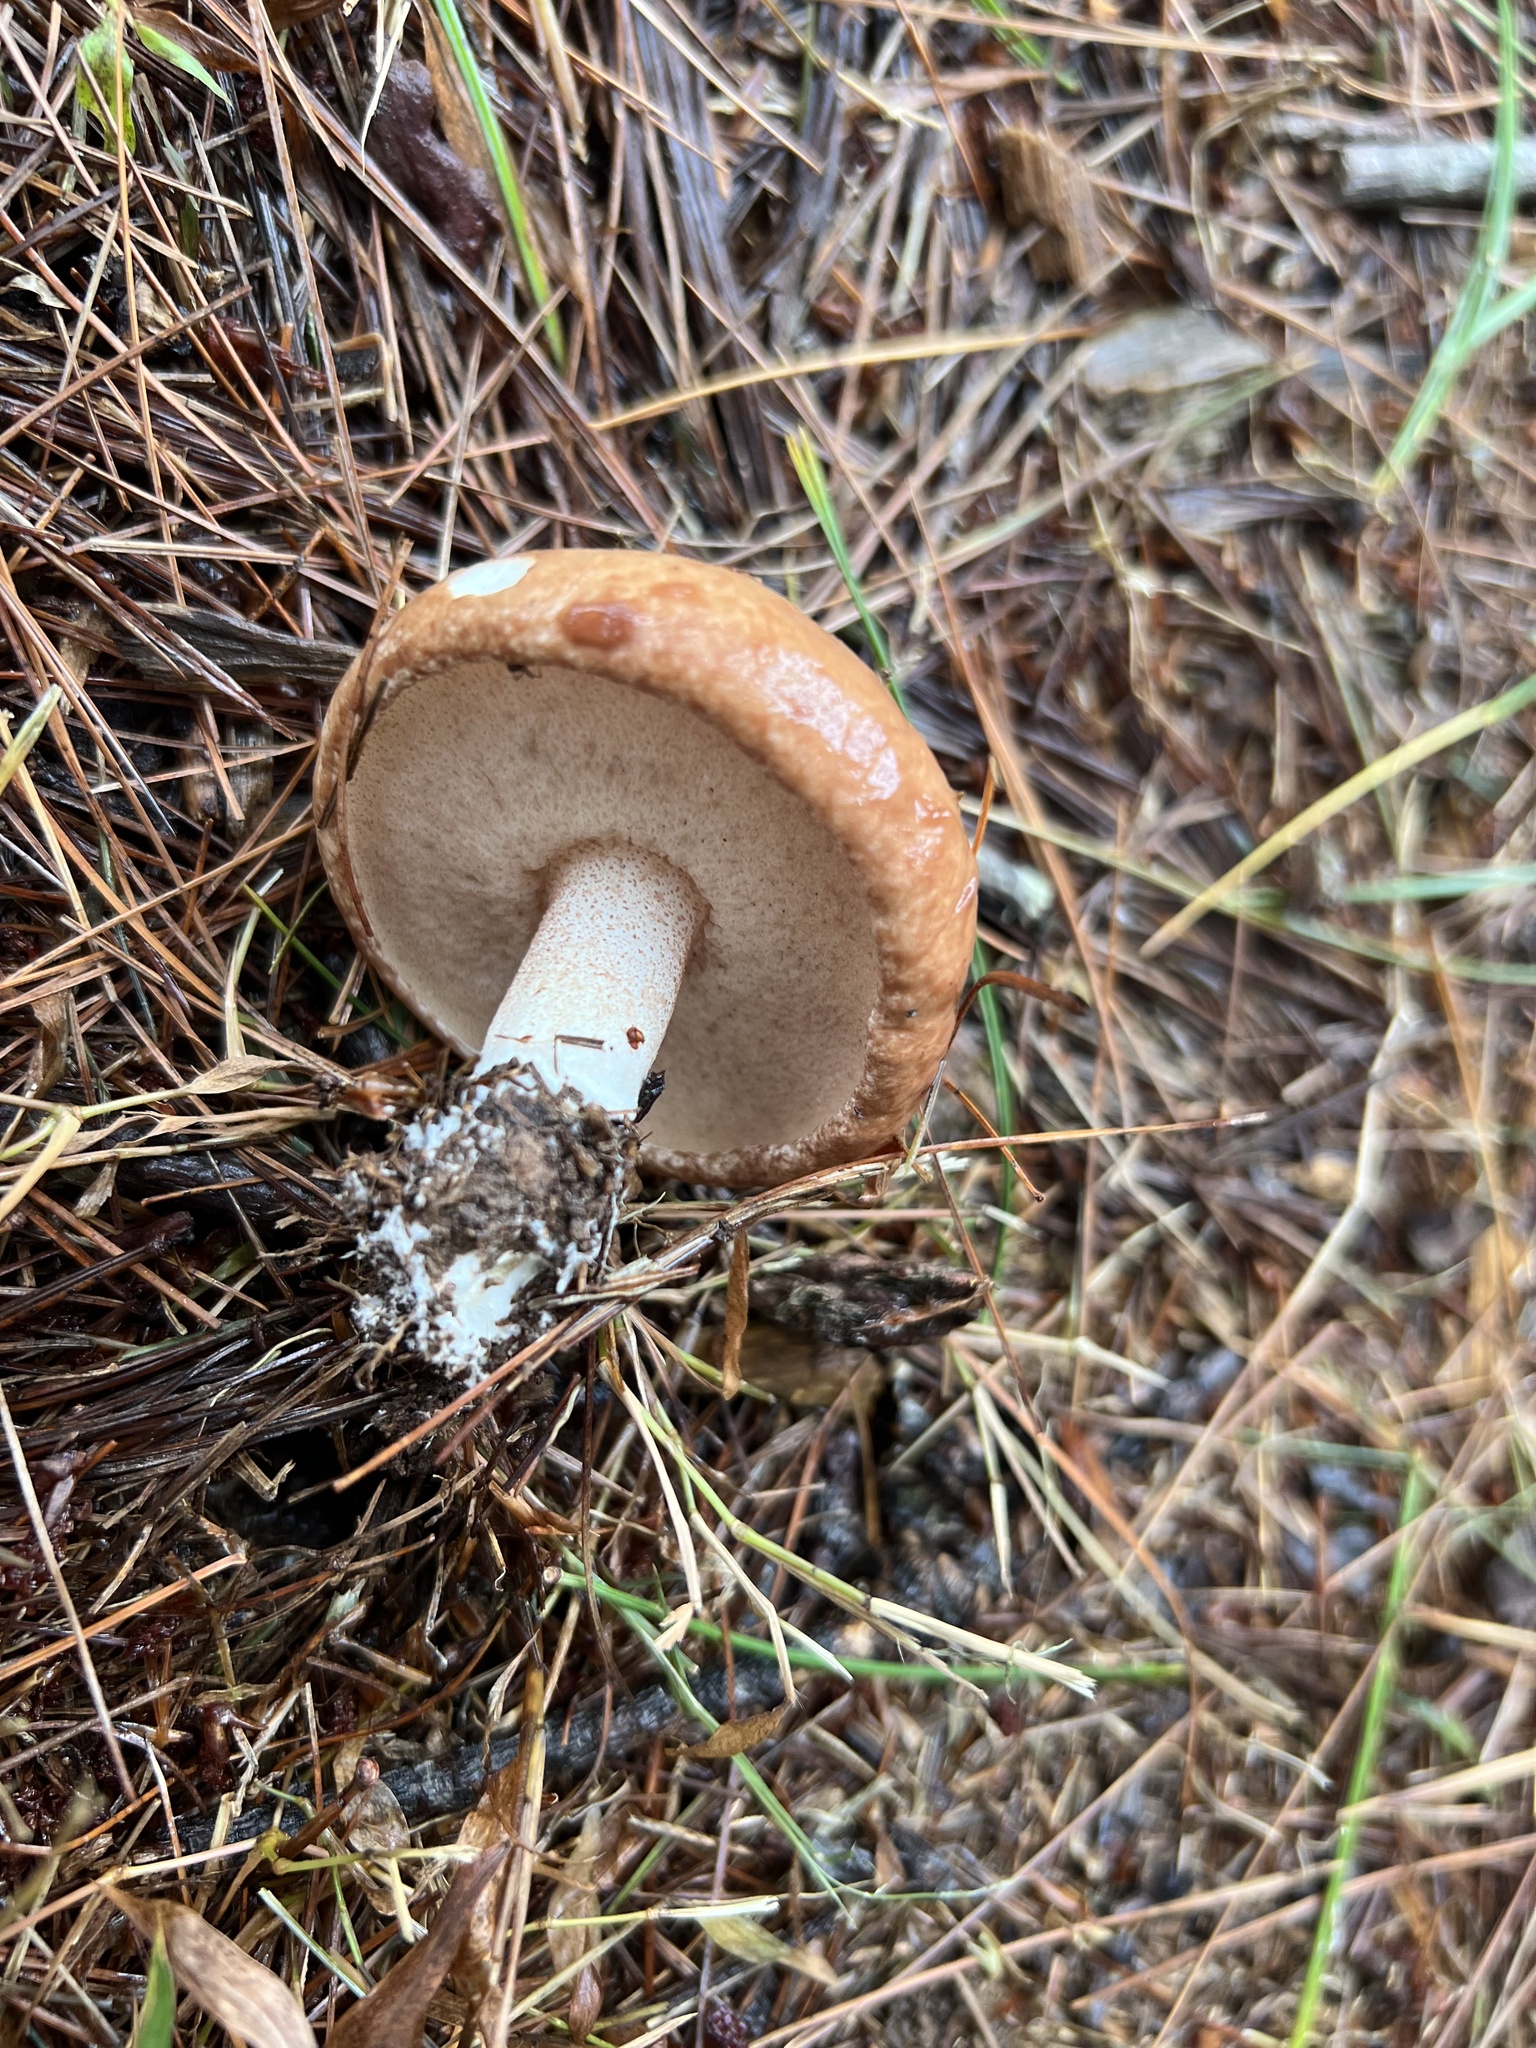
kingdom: Fungi
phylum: Basidiomycota
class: Agaricomycetes
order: Boletales
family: Suillaceae
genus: Fuscoboletinus
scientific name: Fuscoboletinus weaverae
